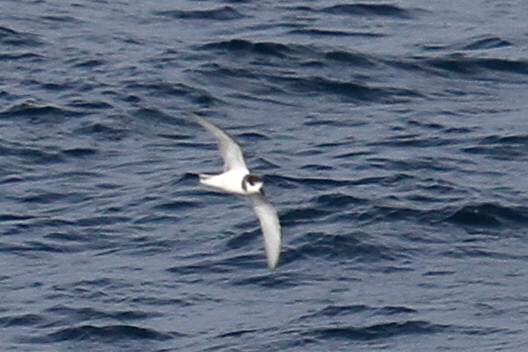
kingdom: Animalia
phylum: Chordata
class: Aves
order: Procellariiformes
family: Procellariidae
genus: Halobaena
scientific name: Halobaena caerulea
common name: Blue petrel
